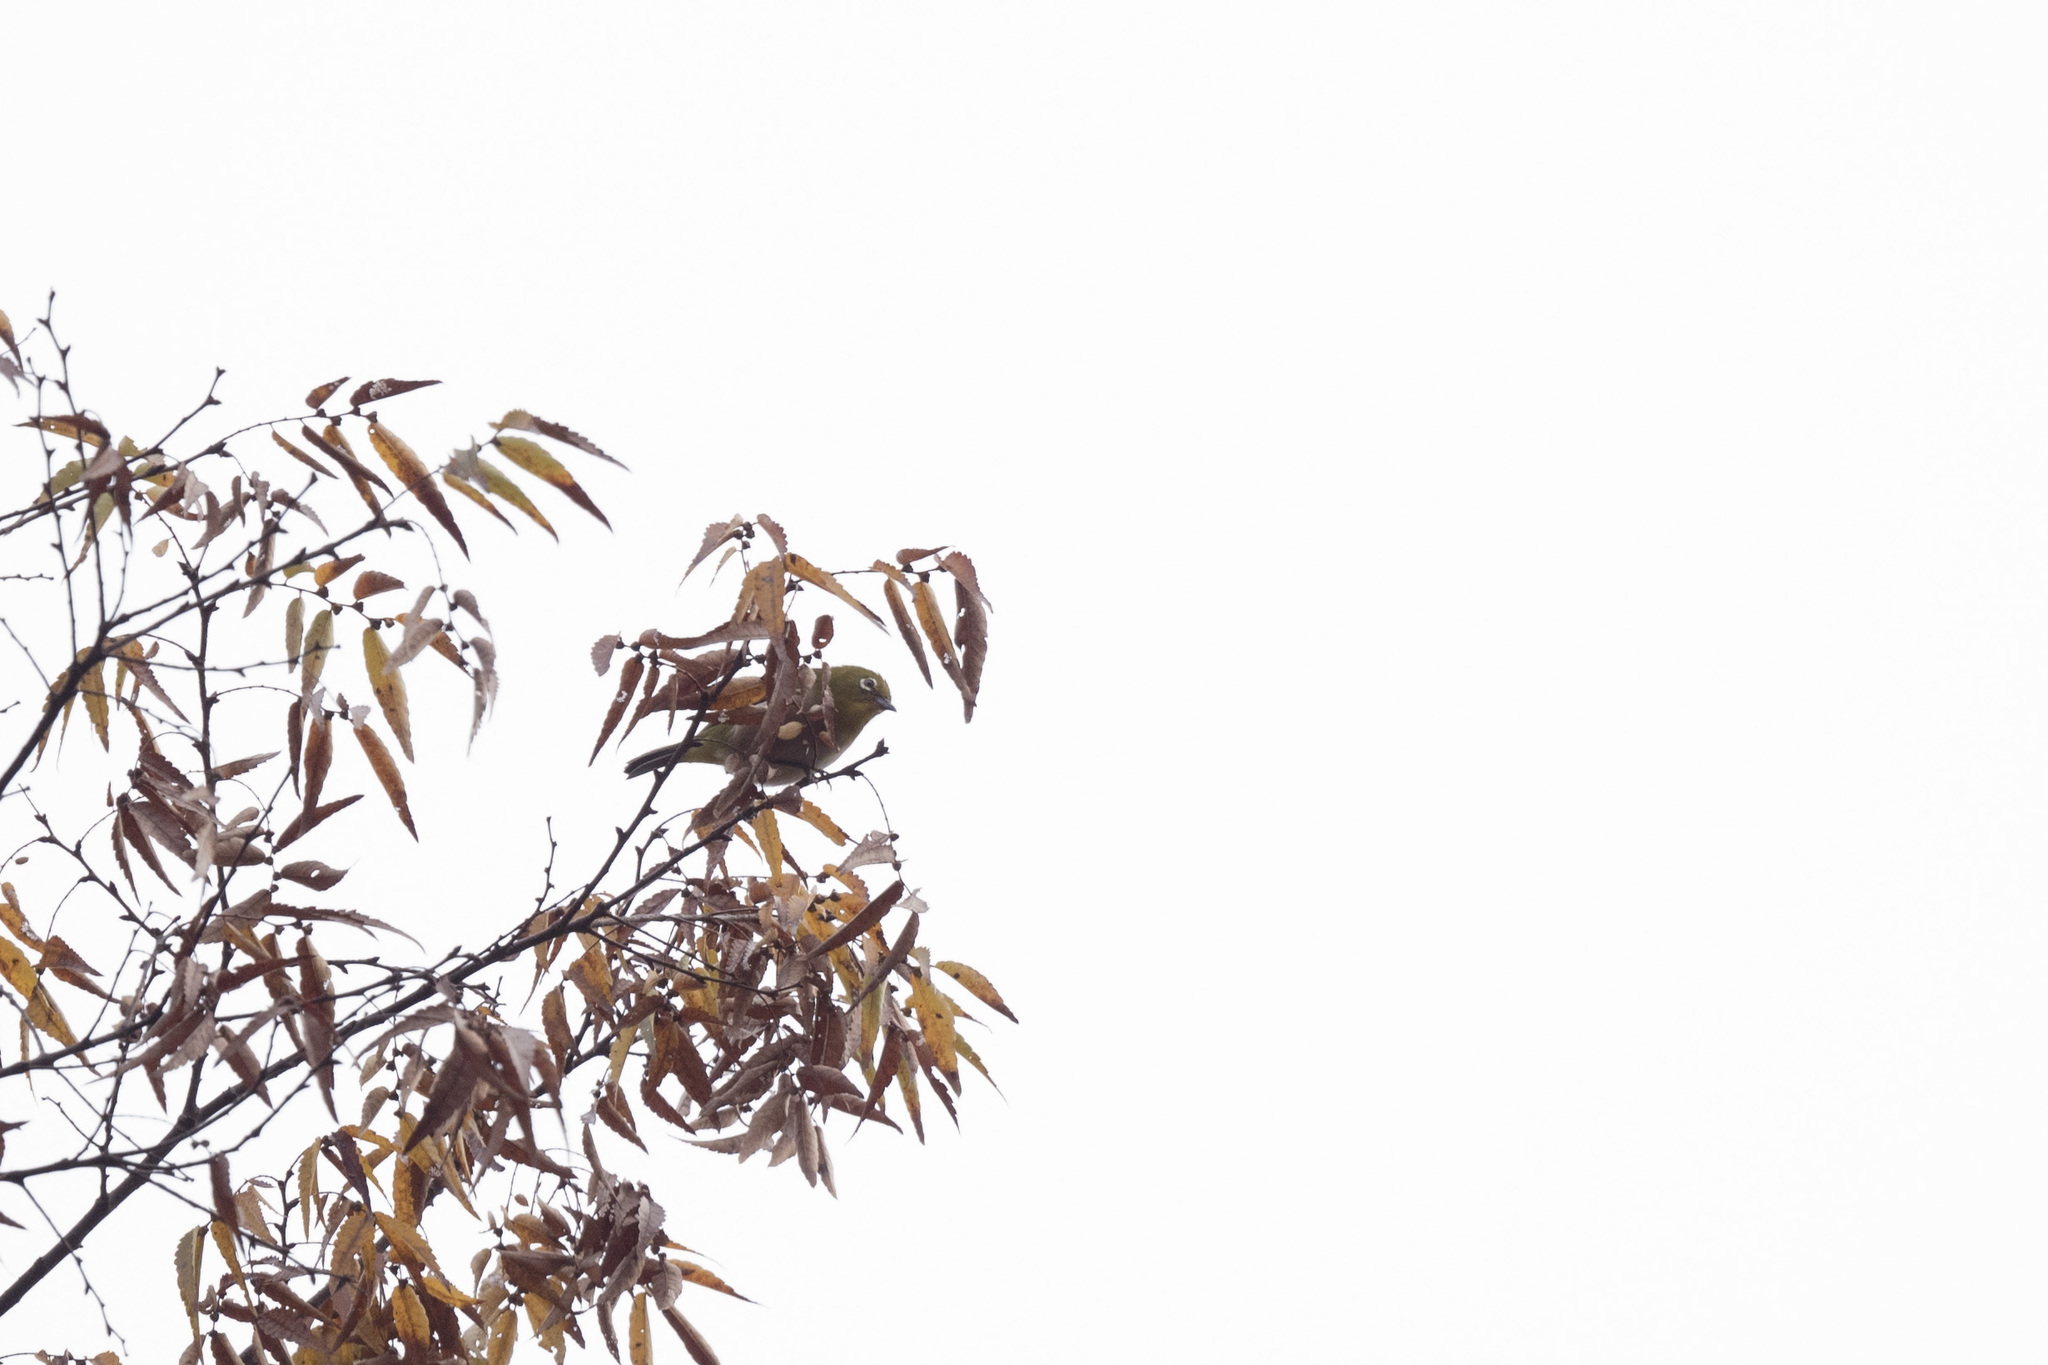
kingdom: Animalia
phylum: Chordata
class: Aves
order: Passeriformes
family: Zosteropidae
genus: Zosterops
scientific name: Zosterops japonicus
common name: Japanese white-eye
